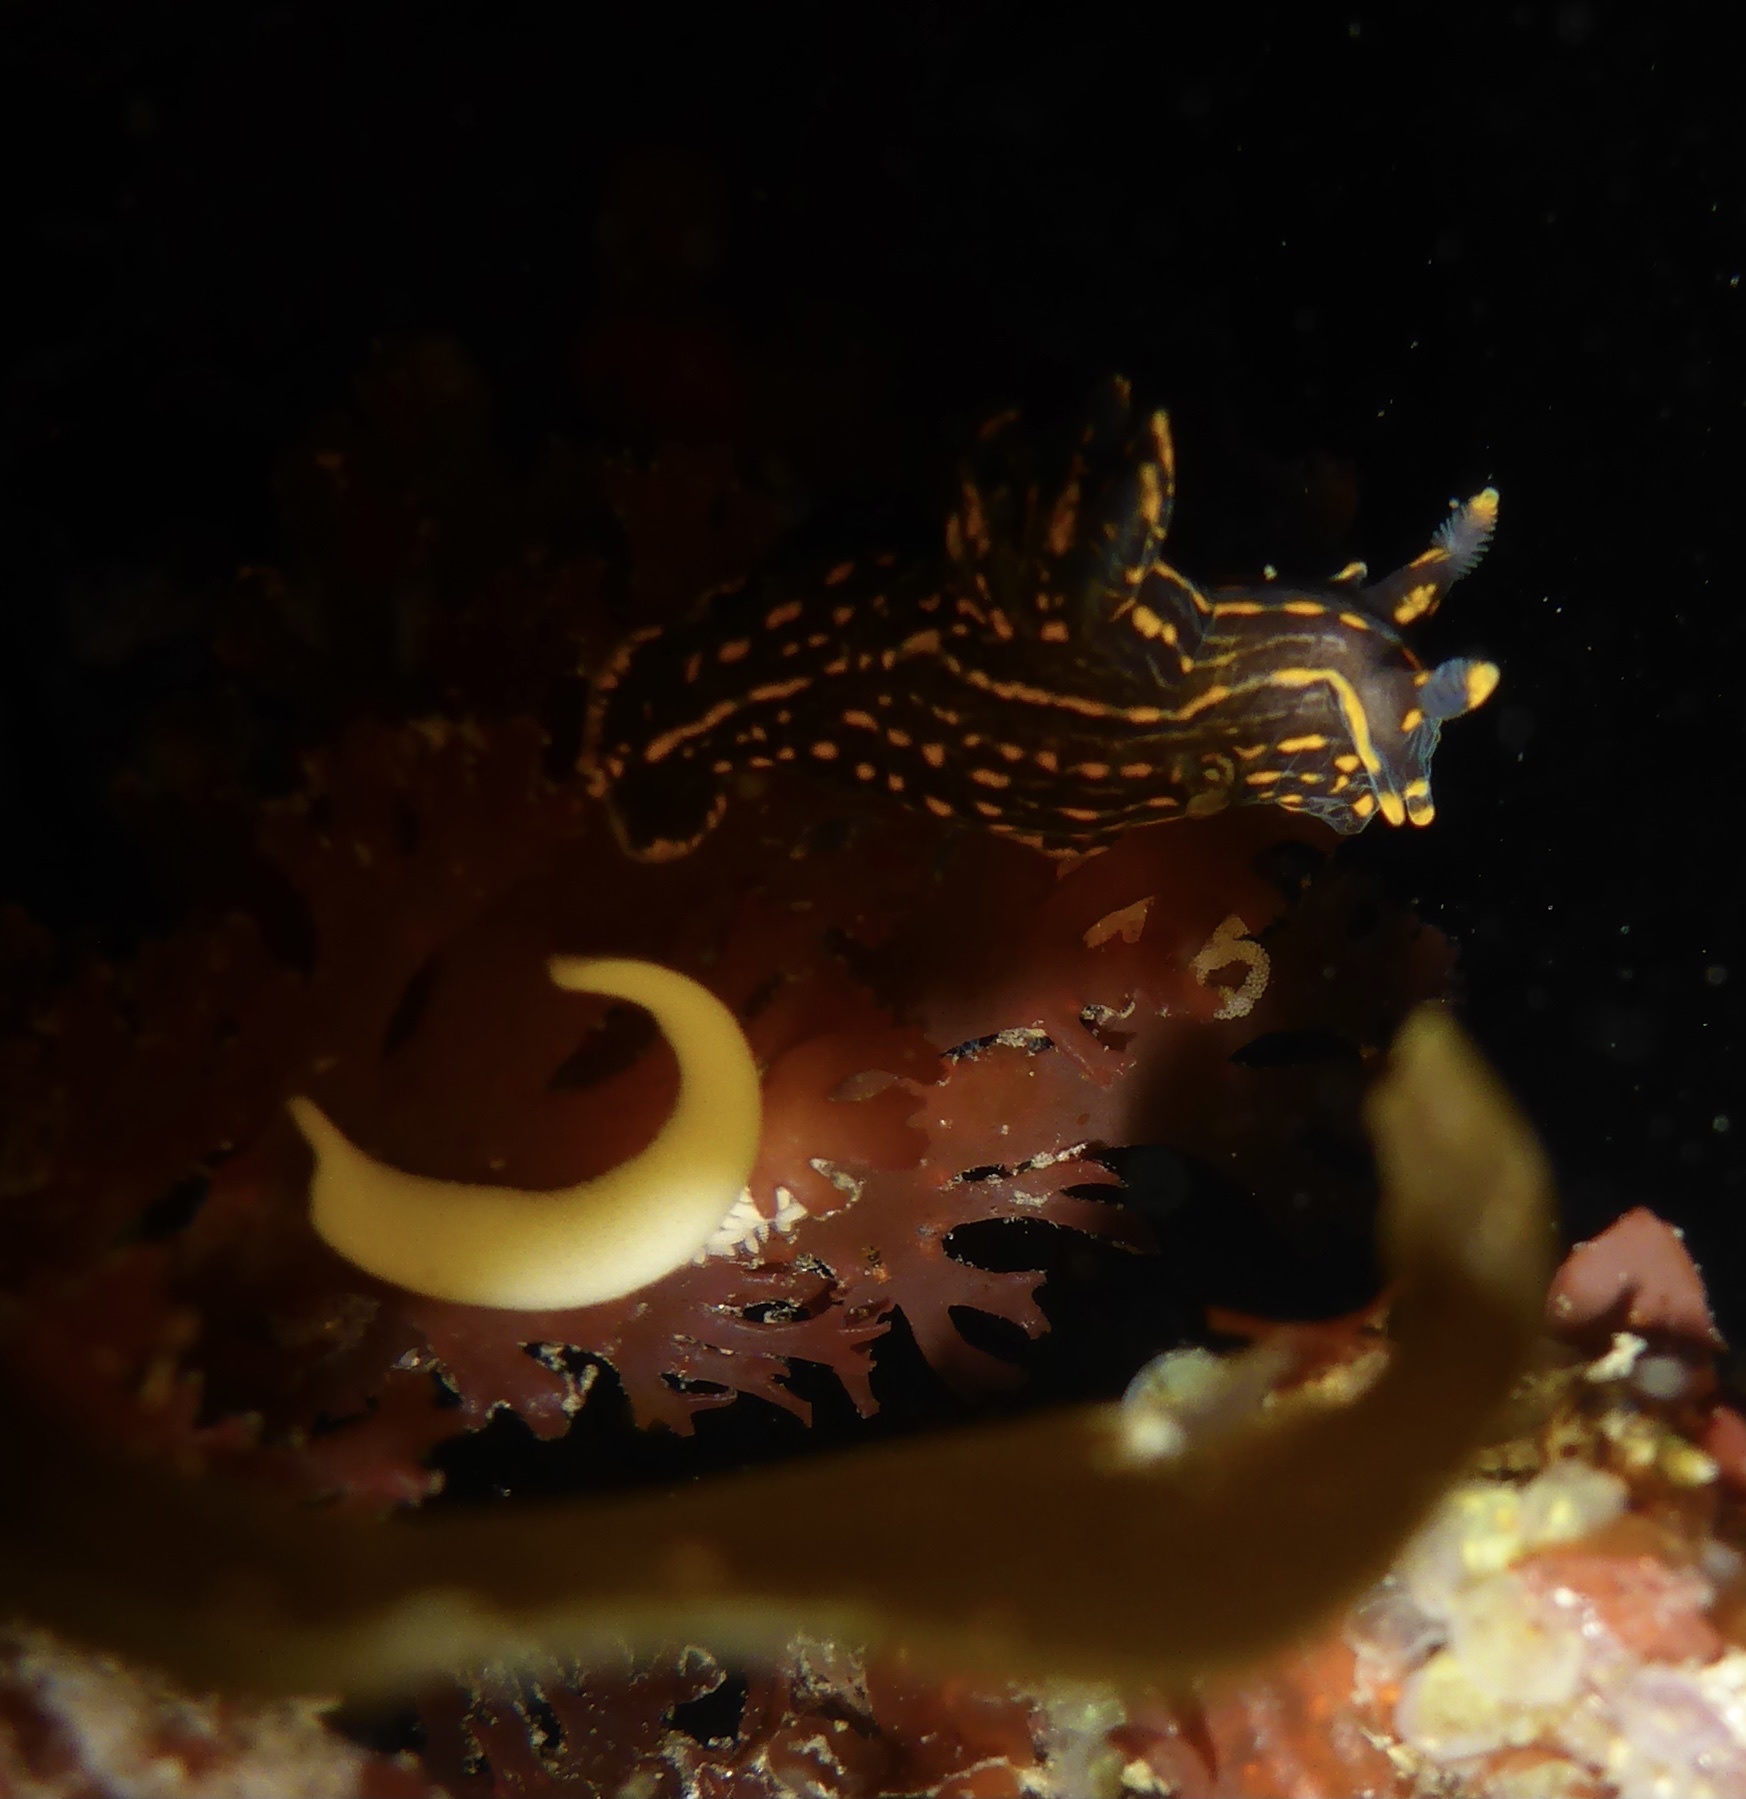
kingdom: Animalia
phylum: Mollusca
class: Gastropoda
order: Nudibranchia
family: Polyceridae
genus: Polycera
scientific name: Polycera atra
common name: Orange-spike polycera
